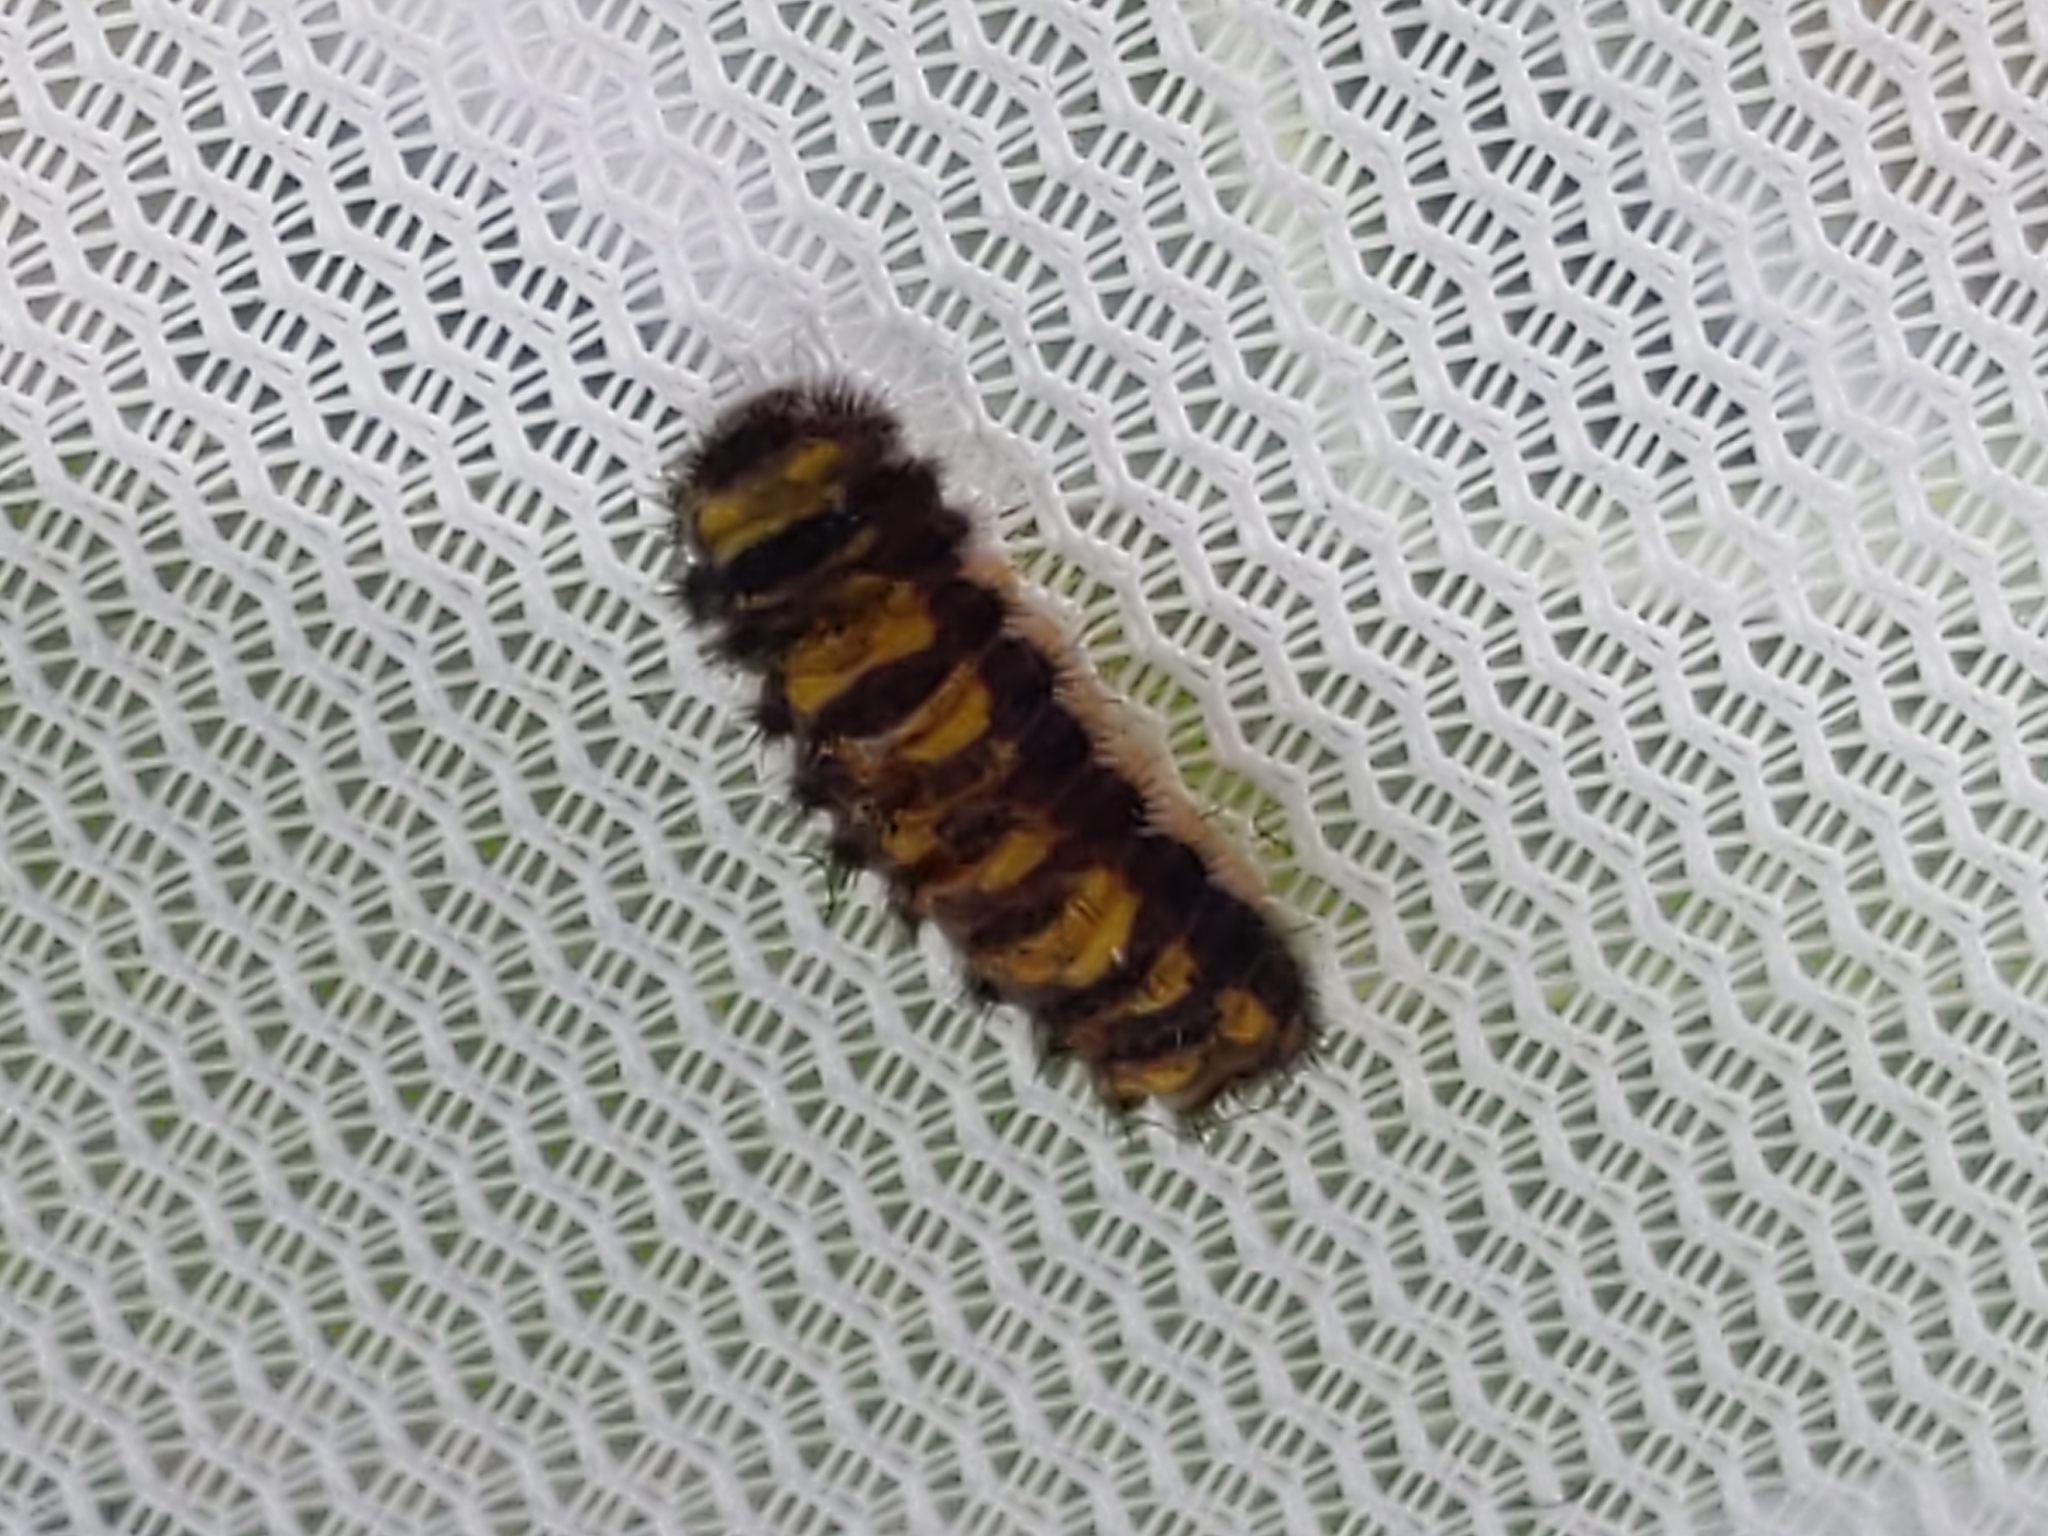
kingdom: Animalia
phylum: Arthropoda
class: Insecta
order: Lepidoptera
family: Zygaenidae
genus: Harrisina
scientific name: Harrisina americana
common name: Grapeleaf skeletonizer moth
